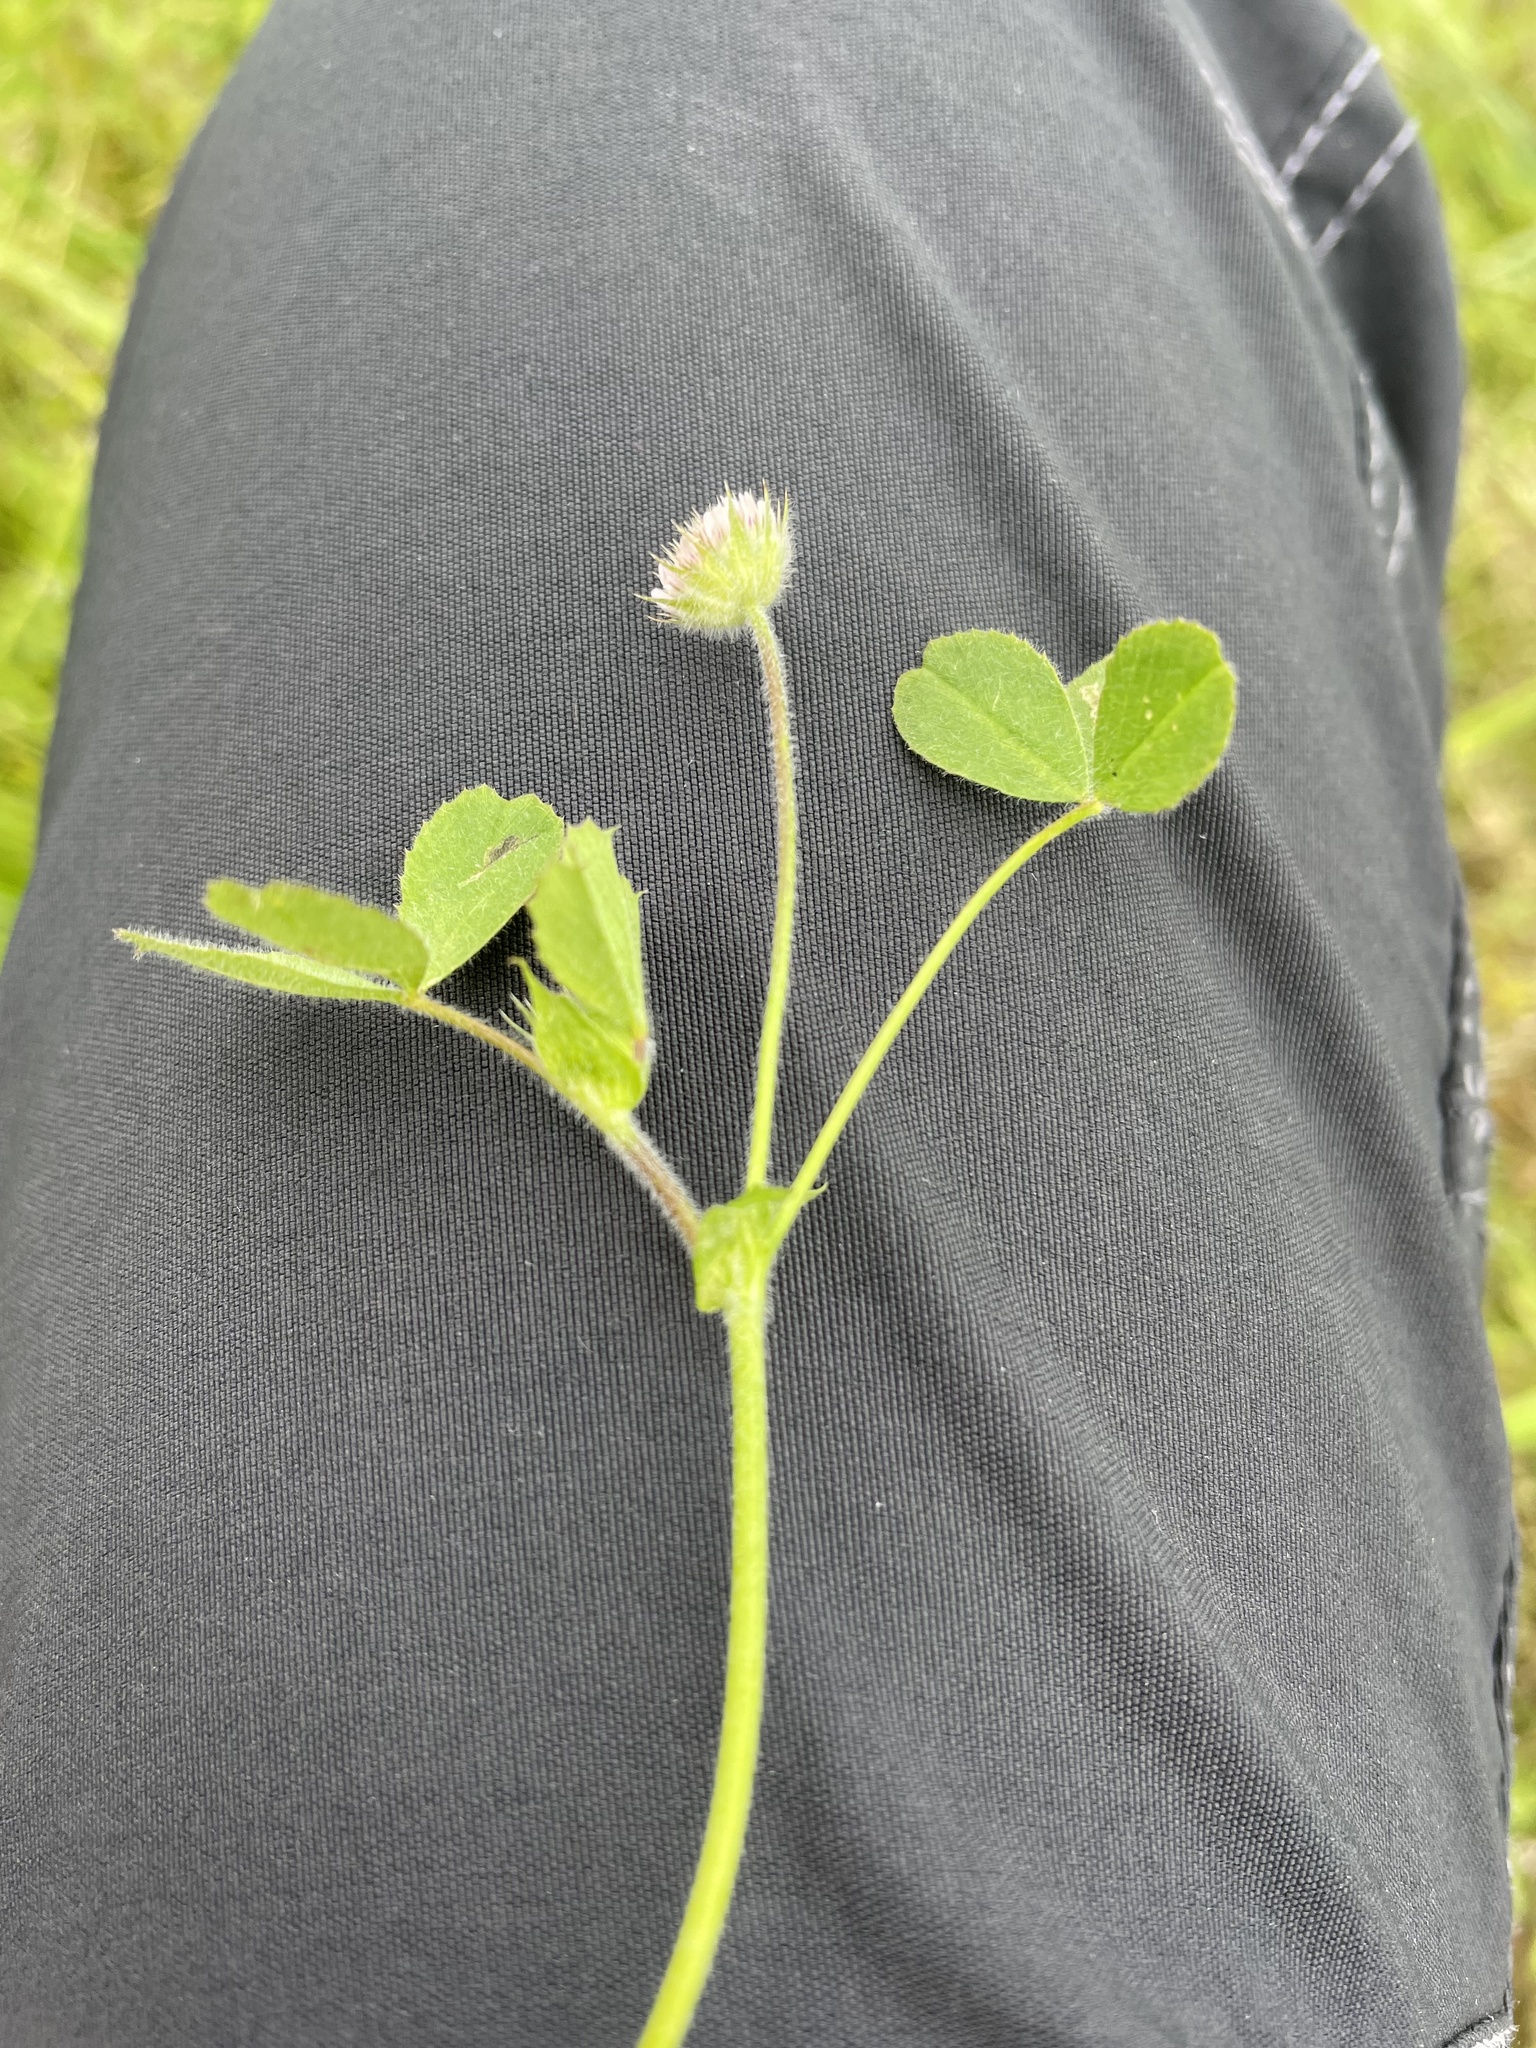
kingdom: Plantae
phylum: Tracheophyta
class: Magnoliopsida
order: Fabales
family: Fabaceae
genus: Trifolium
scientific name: Trifolium microcephalum
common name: Maiden clover
